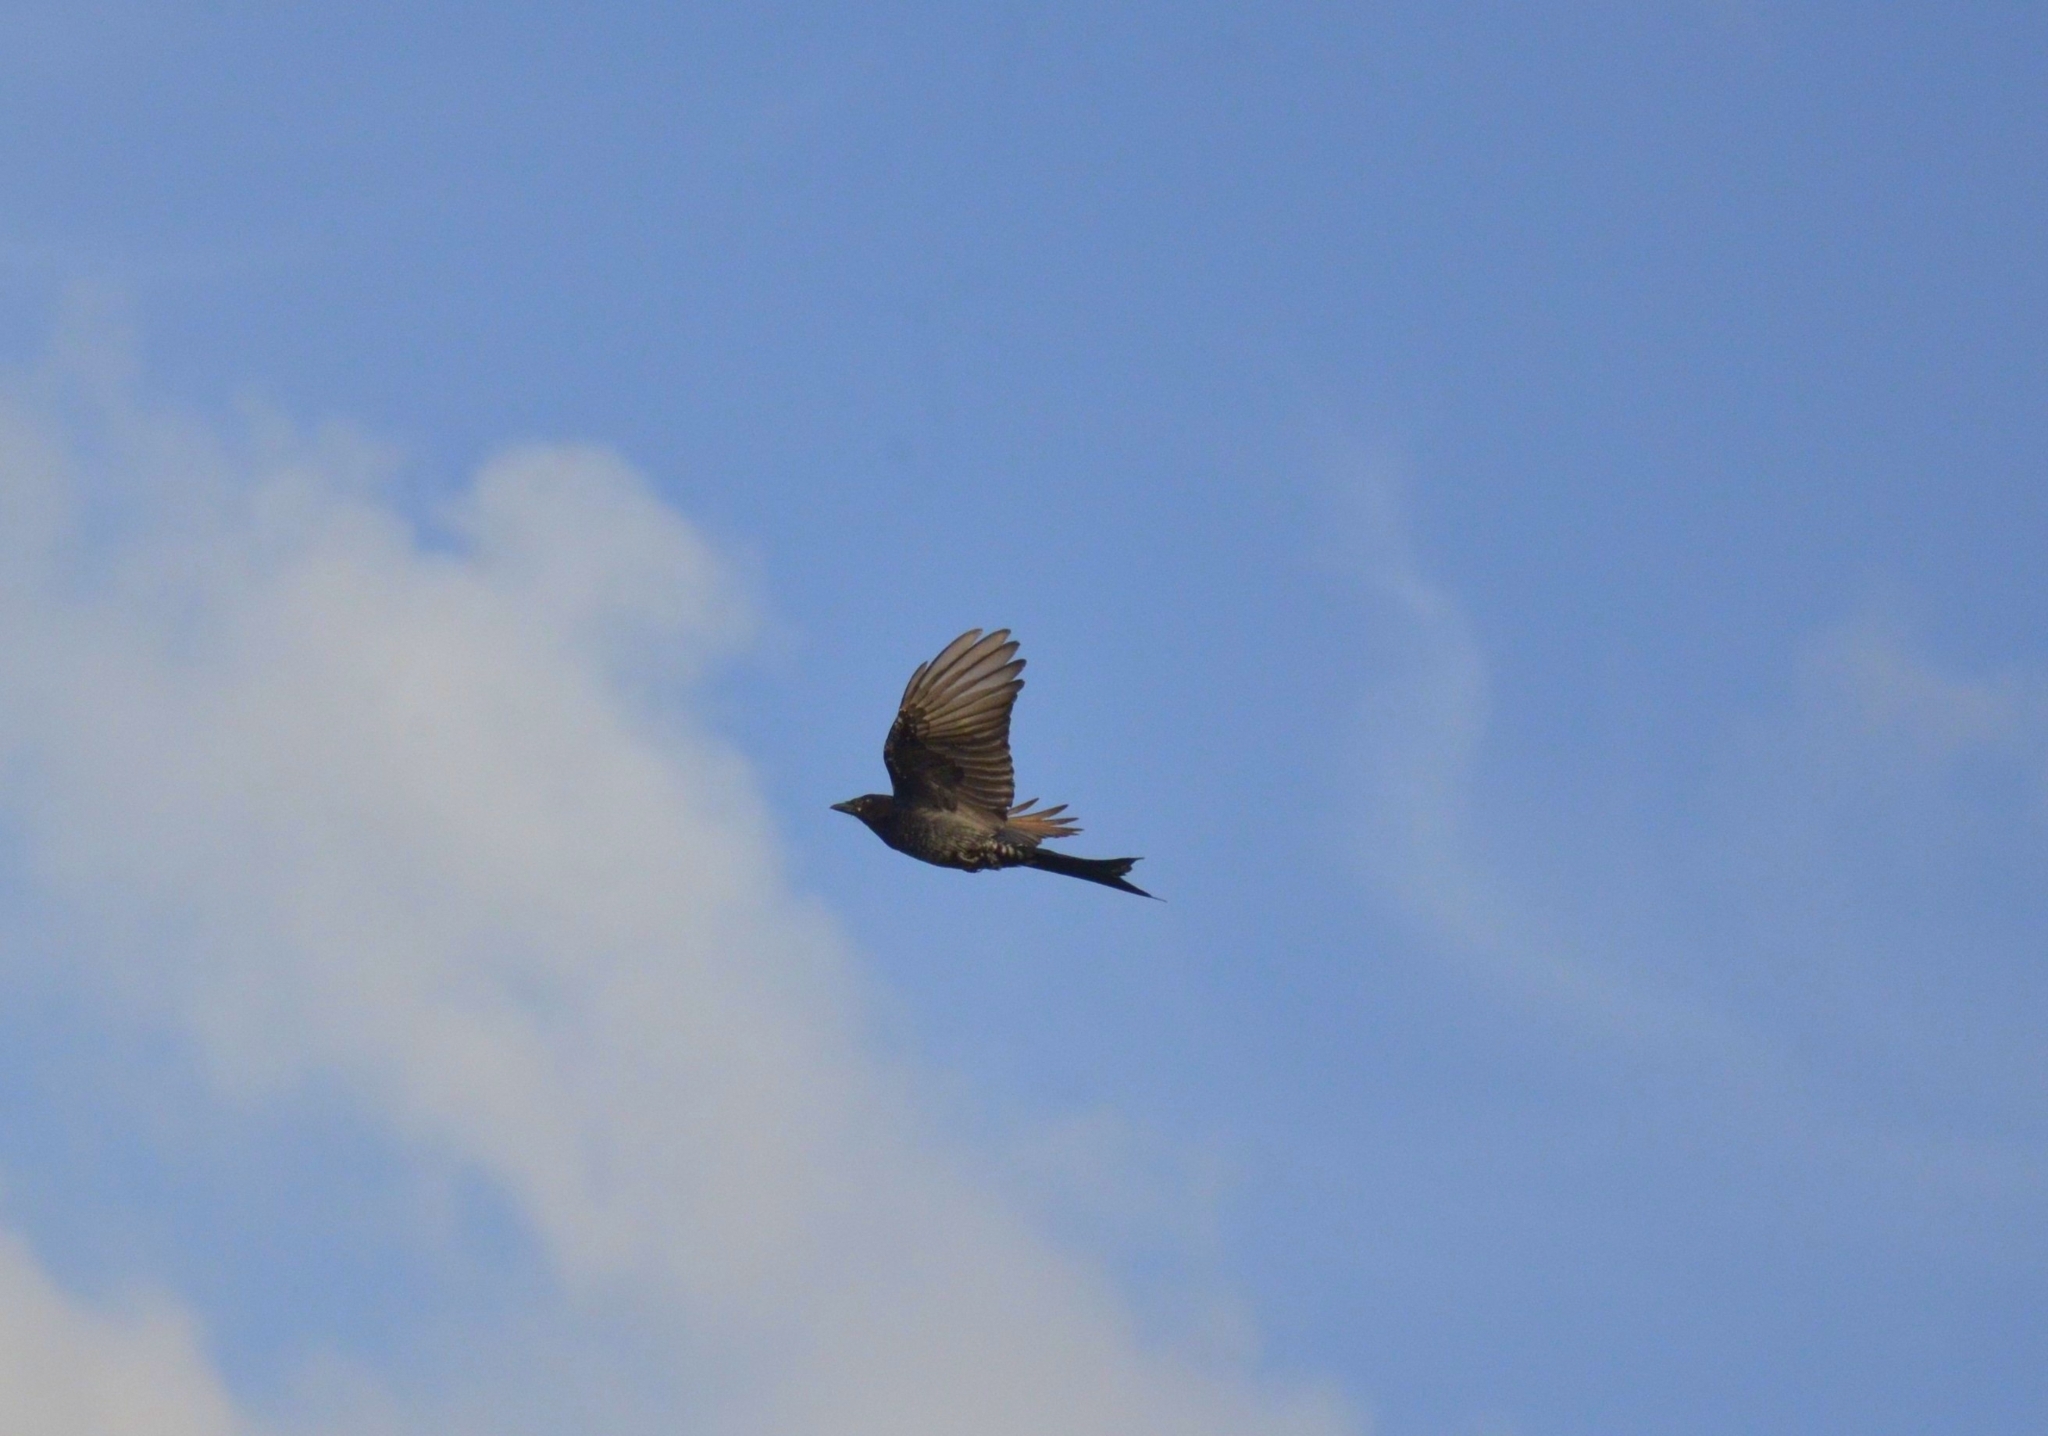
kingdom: Animalia
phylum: Chordata
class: Aves
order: Passeriformes
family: Dicruridae
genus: Dicrurus
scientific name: Dicrurus macrocercus
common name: Black drongo
